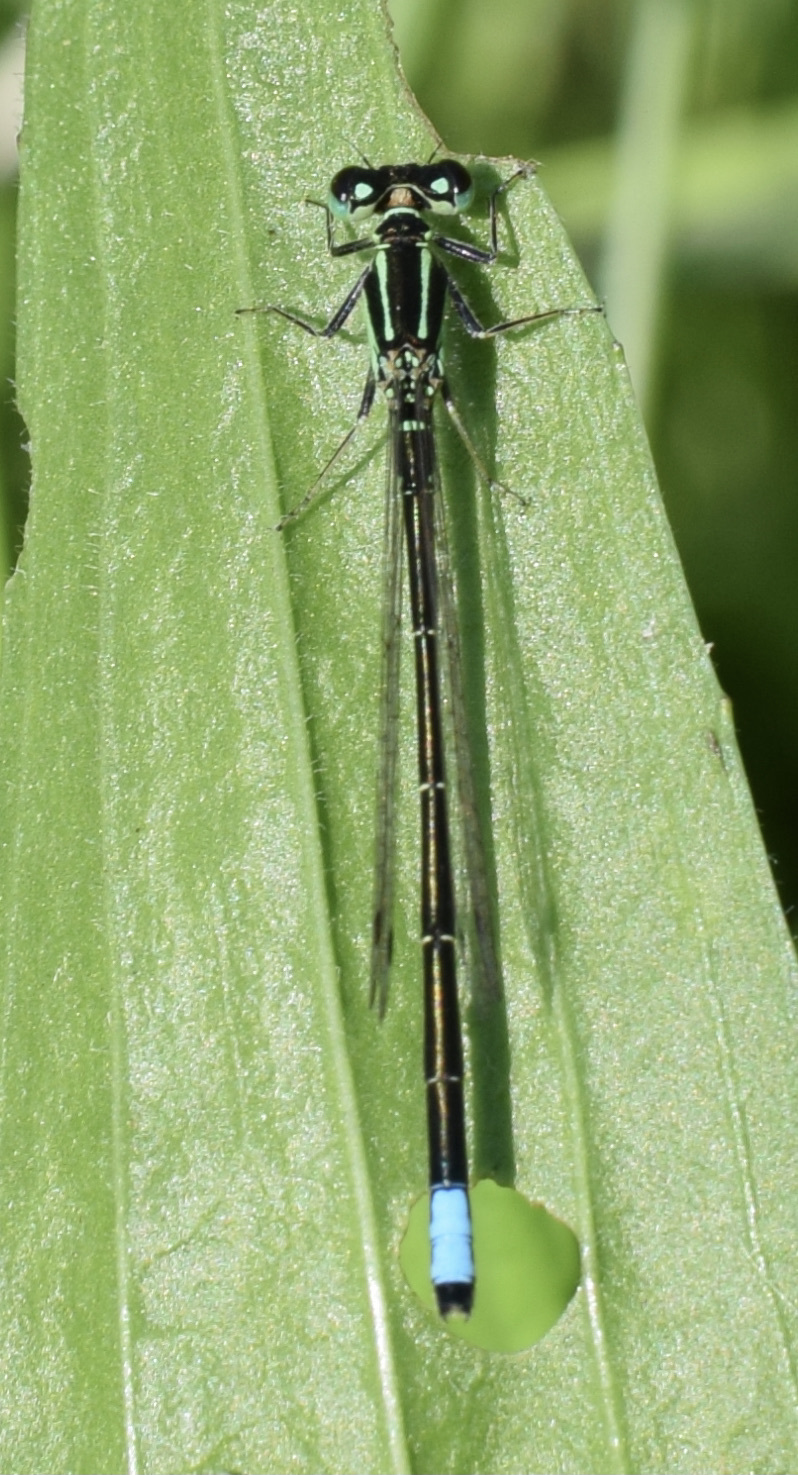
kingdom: Animalia
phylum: Arthropoda
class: Insecta
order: Odonata
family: Coenagrionidae
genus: Ischnura
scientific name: Ischnura verticalis
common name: Eastern forktail
